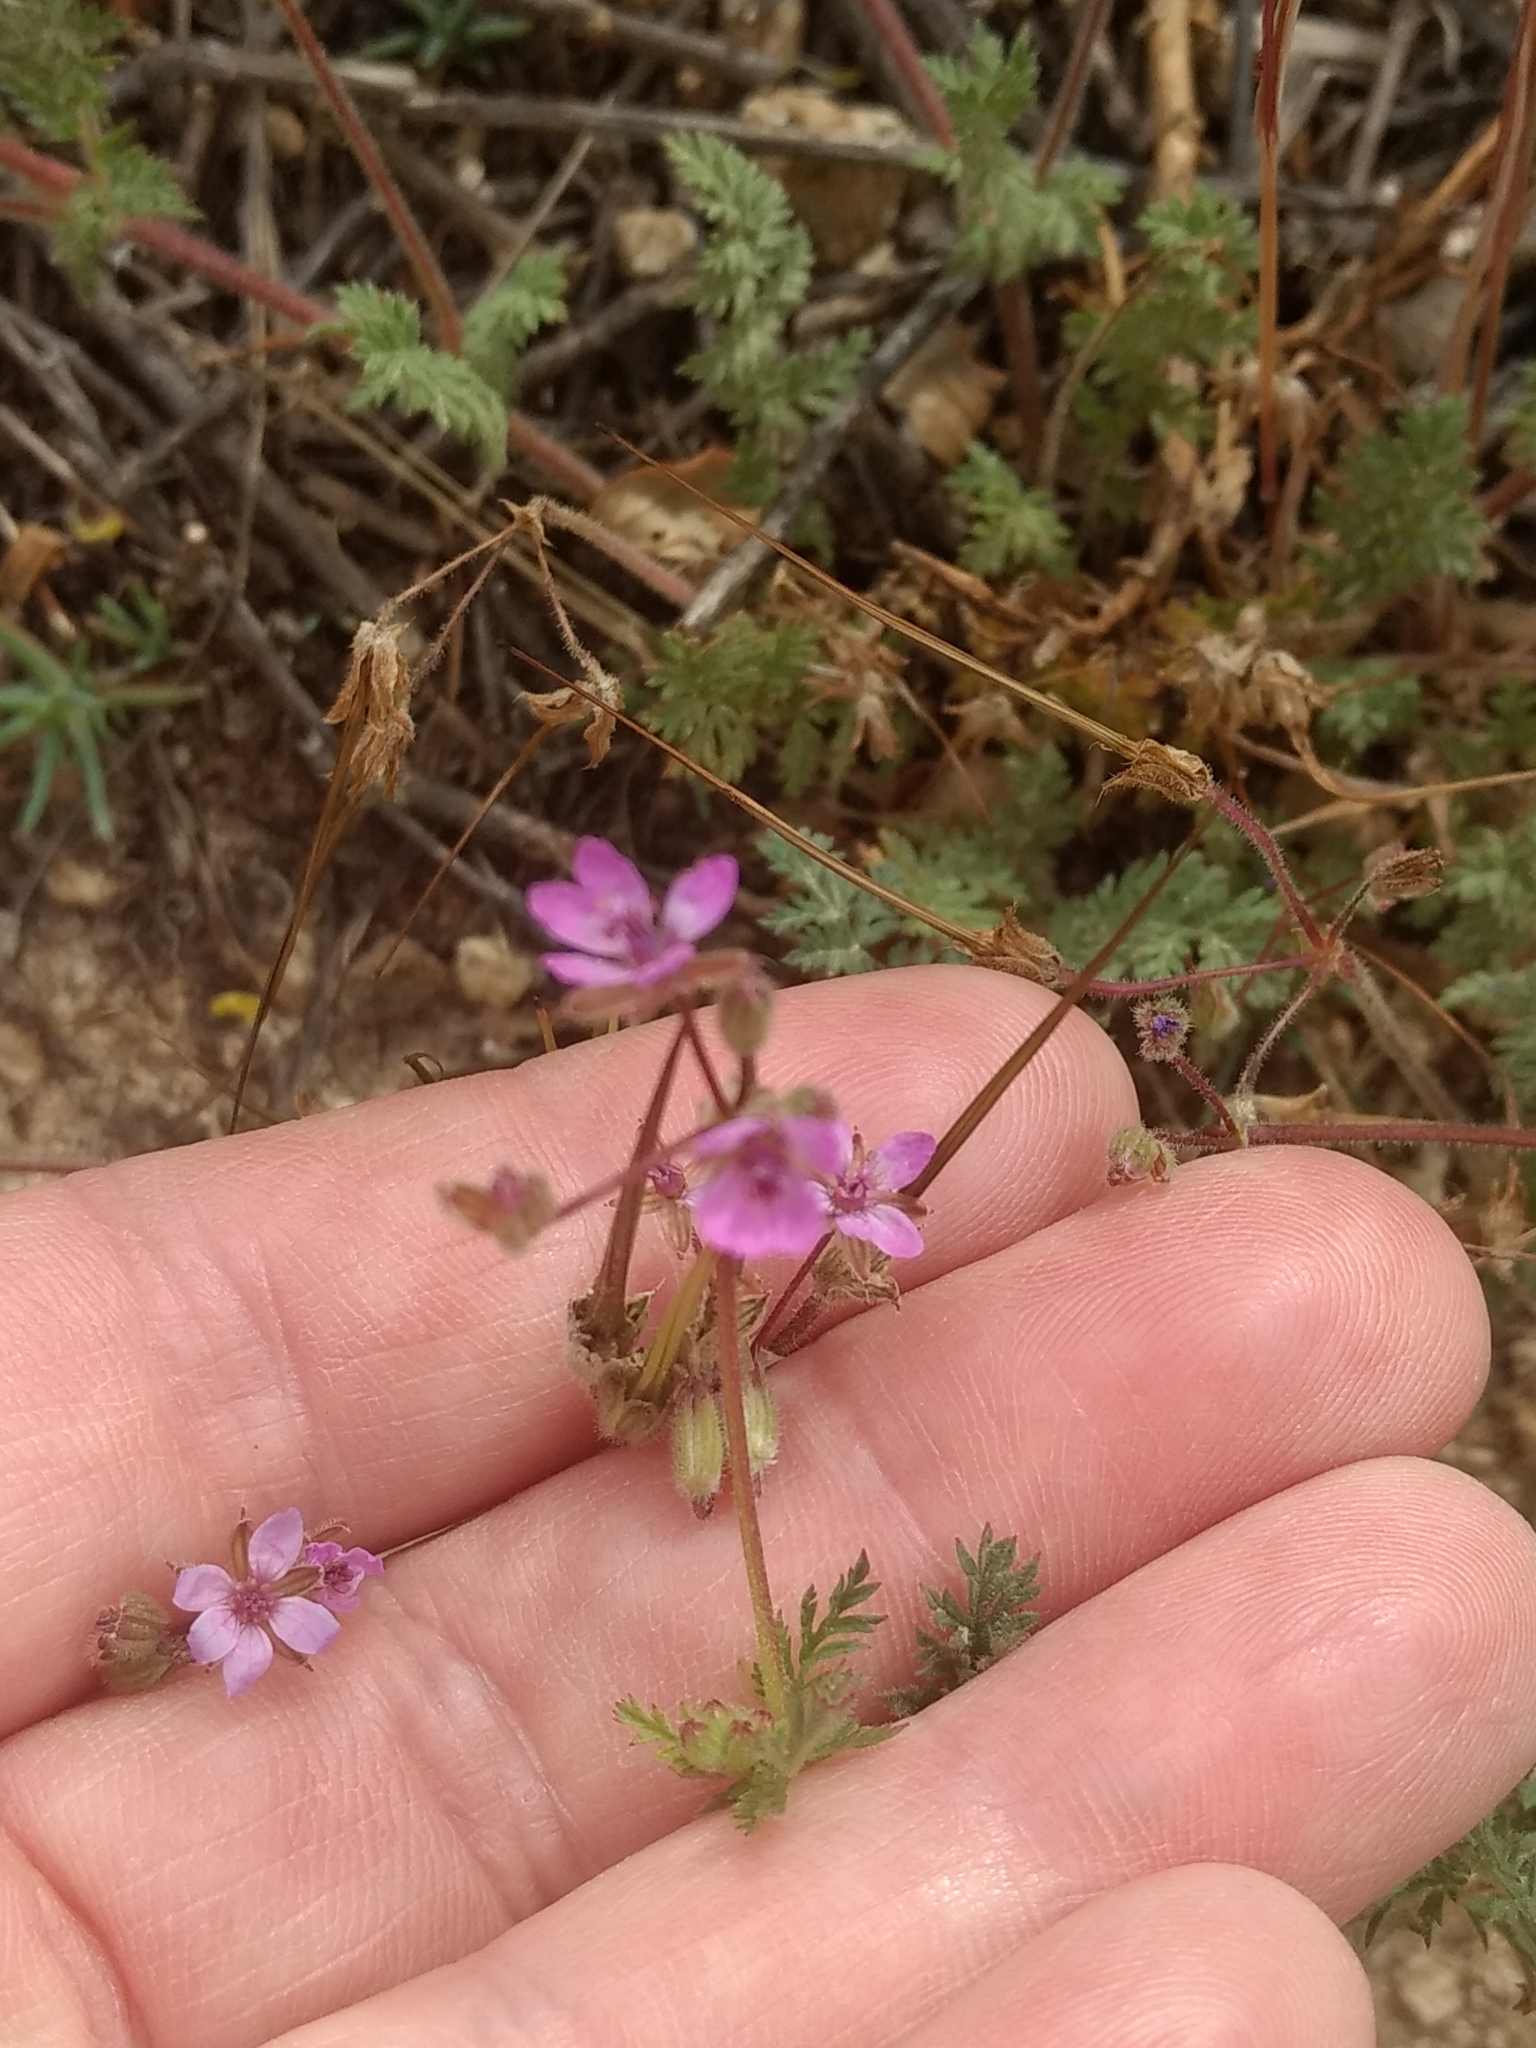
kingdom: Plantae
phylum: Tracheophyta
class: Magnoliopsida
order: Geraniales
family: Geraniaceae
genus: Erodium
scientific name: Erodium cicutarium
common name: Common stork's-bill
